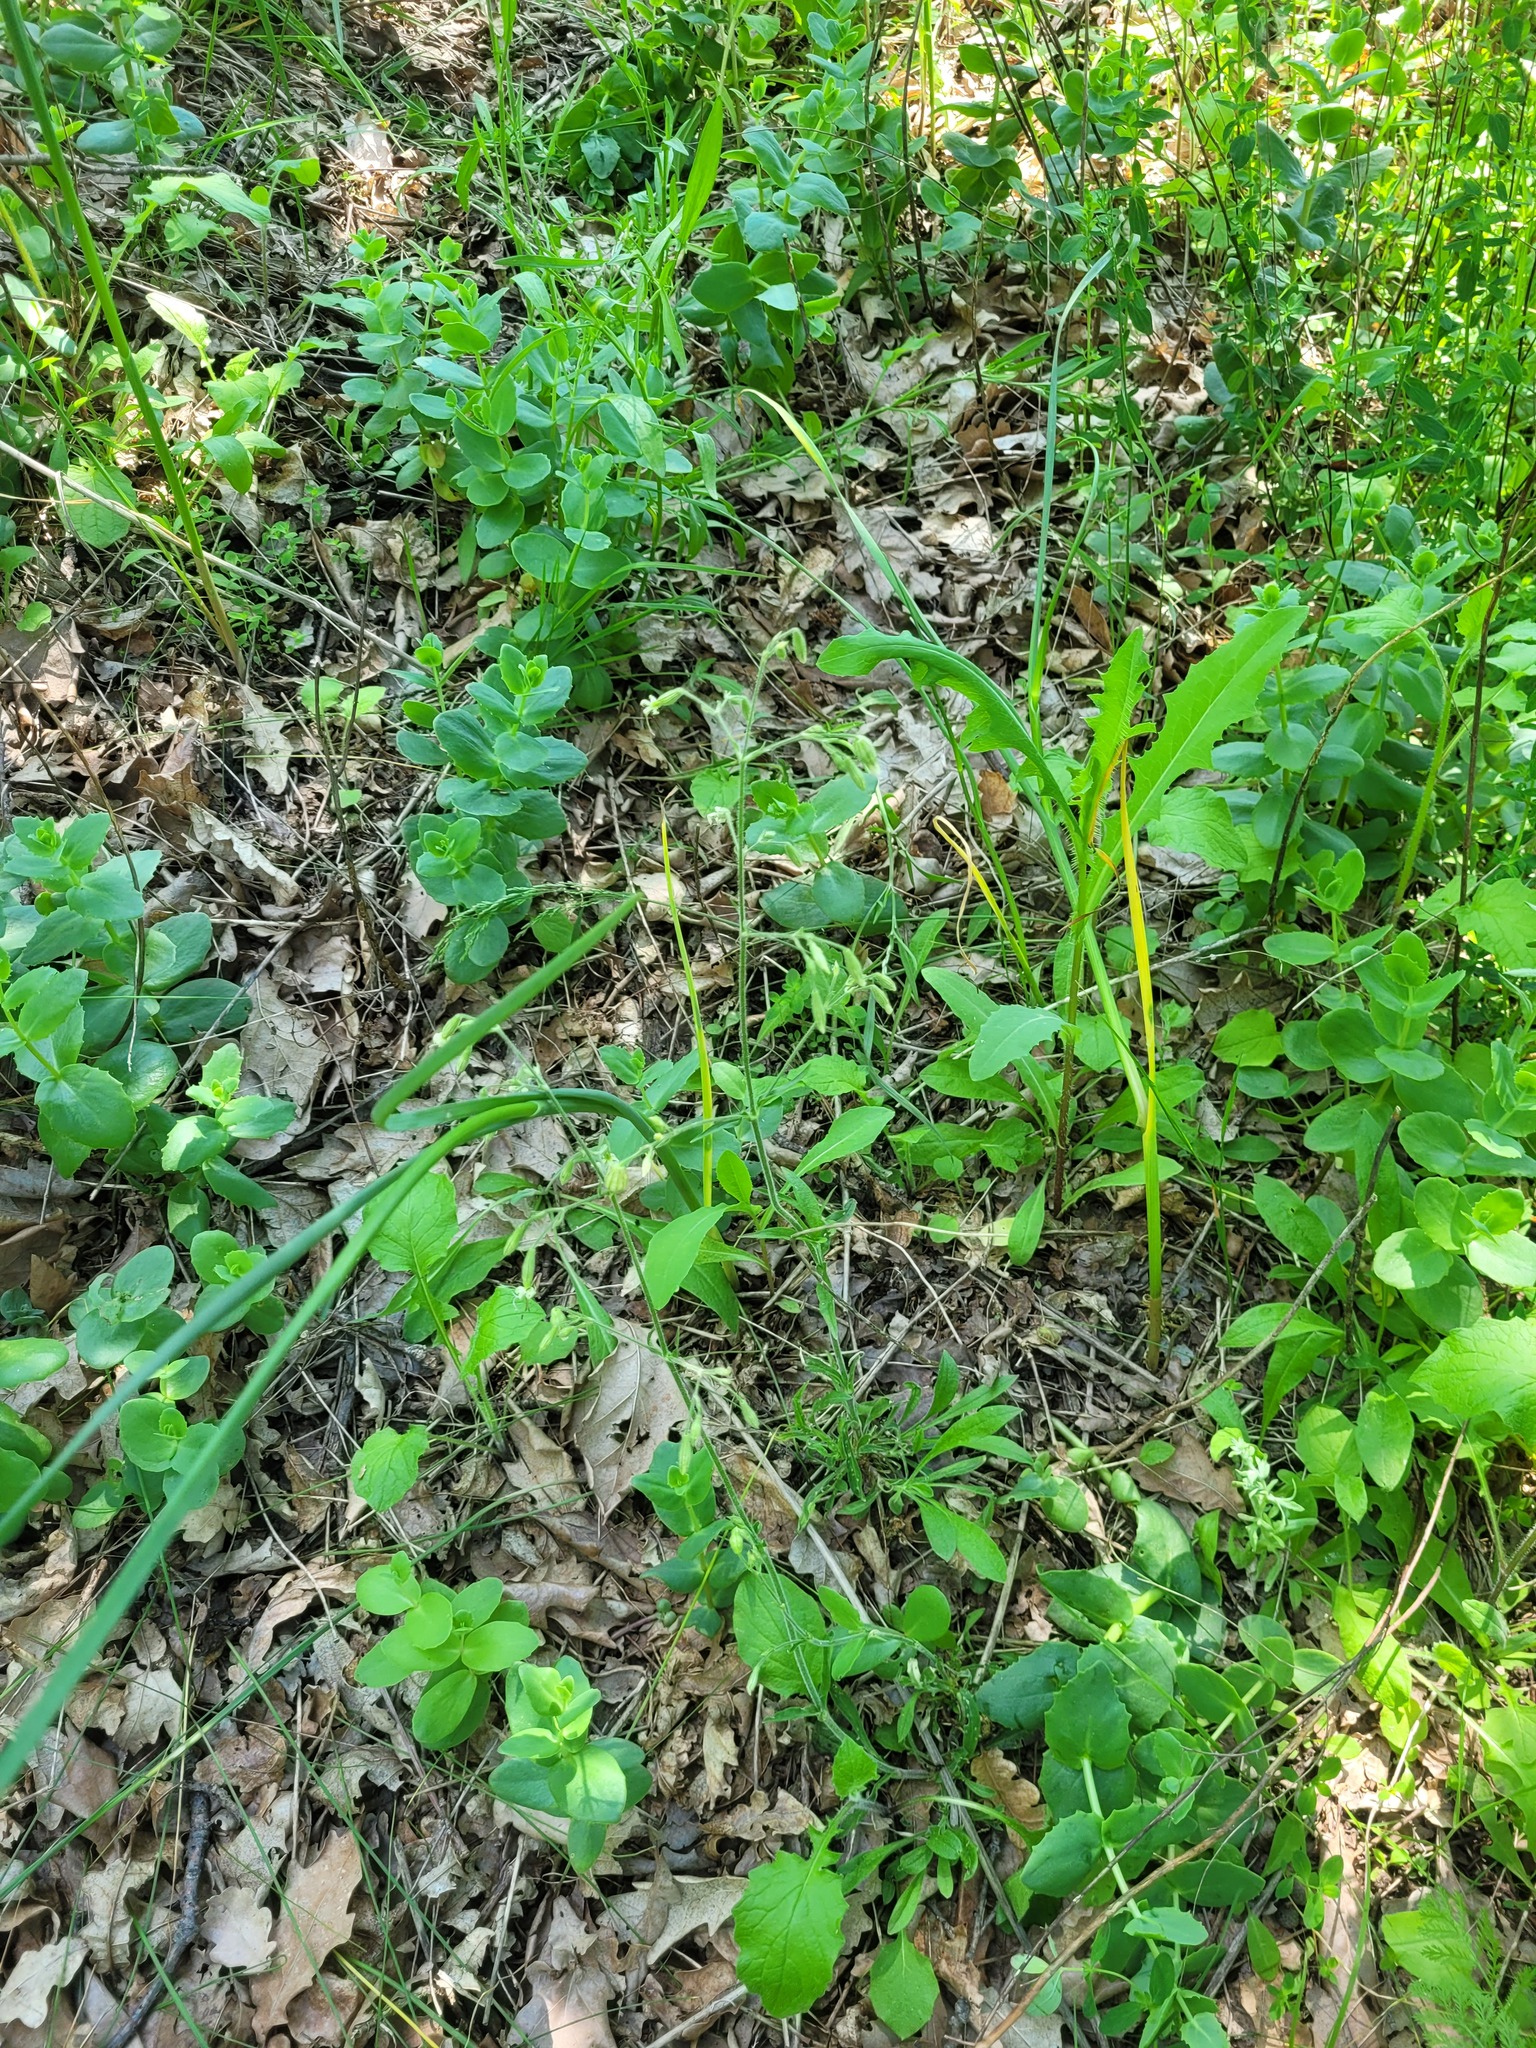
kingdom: Plantae
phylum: Tracheophyta
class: Magnoliopsida
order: Caryophyllales
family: Caryophyllaceae
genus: Silene
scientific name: Silene nutans
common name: Nottingham catchfly
